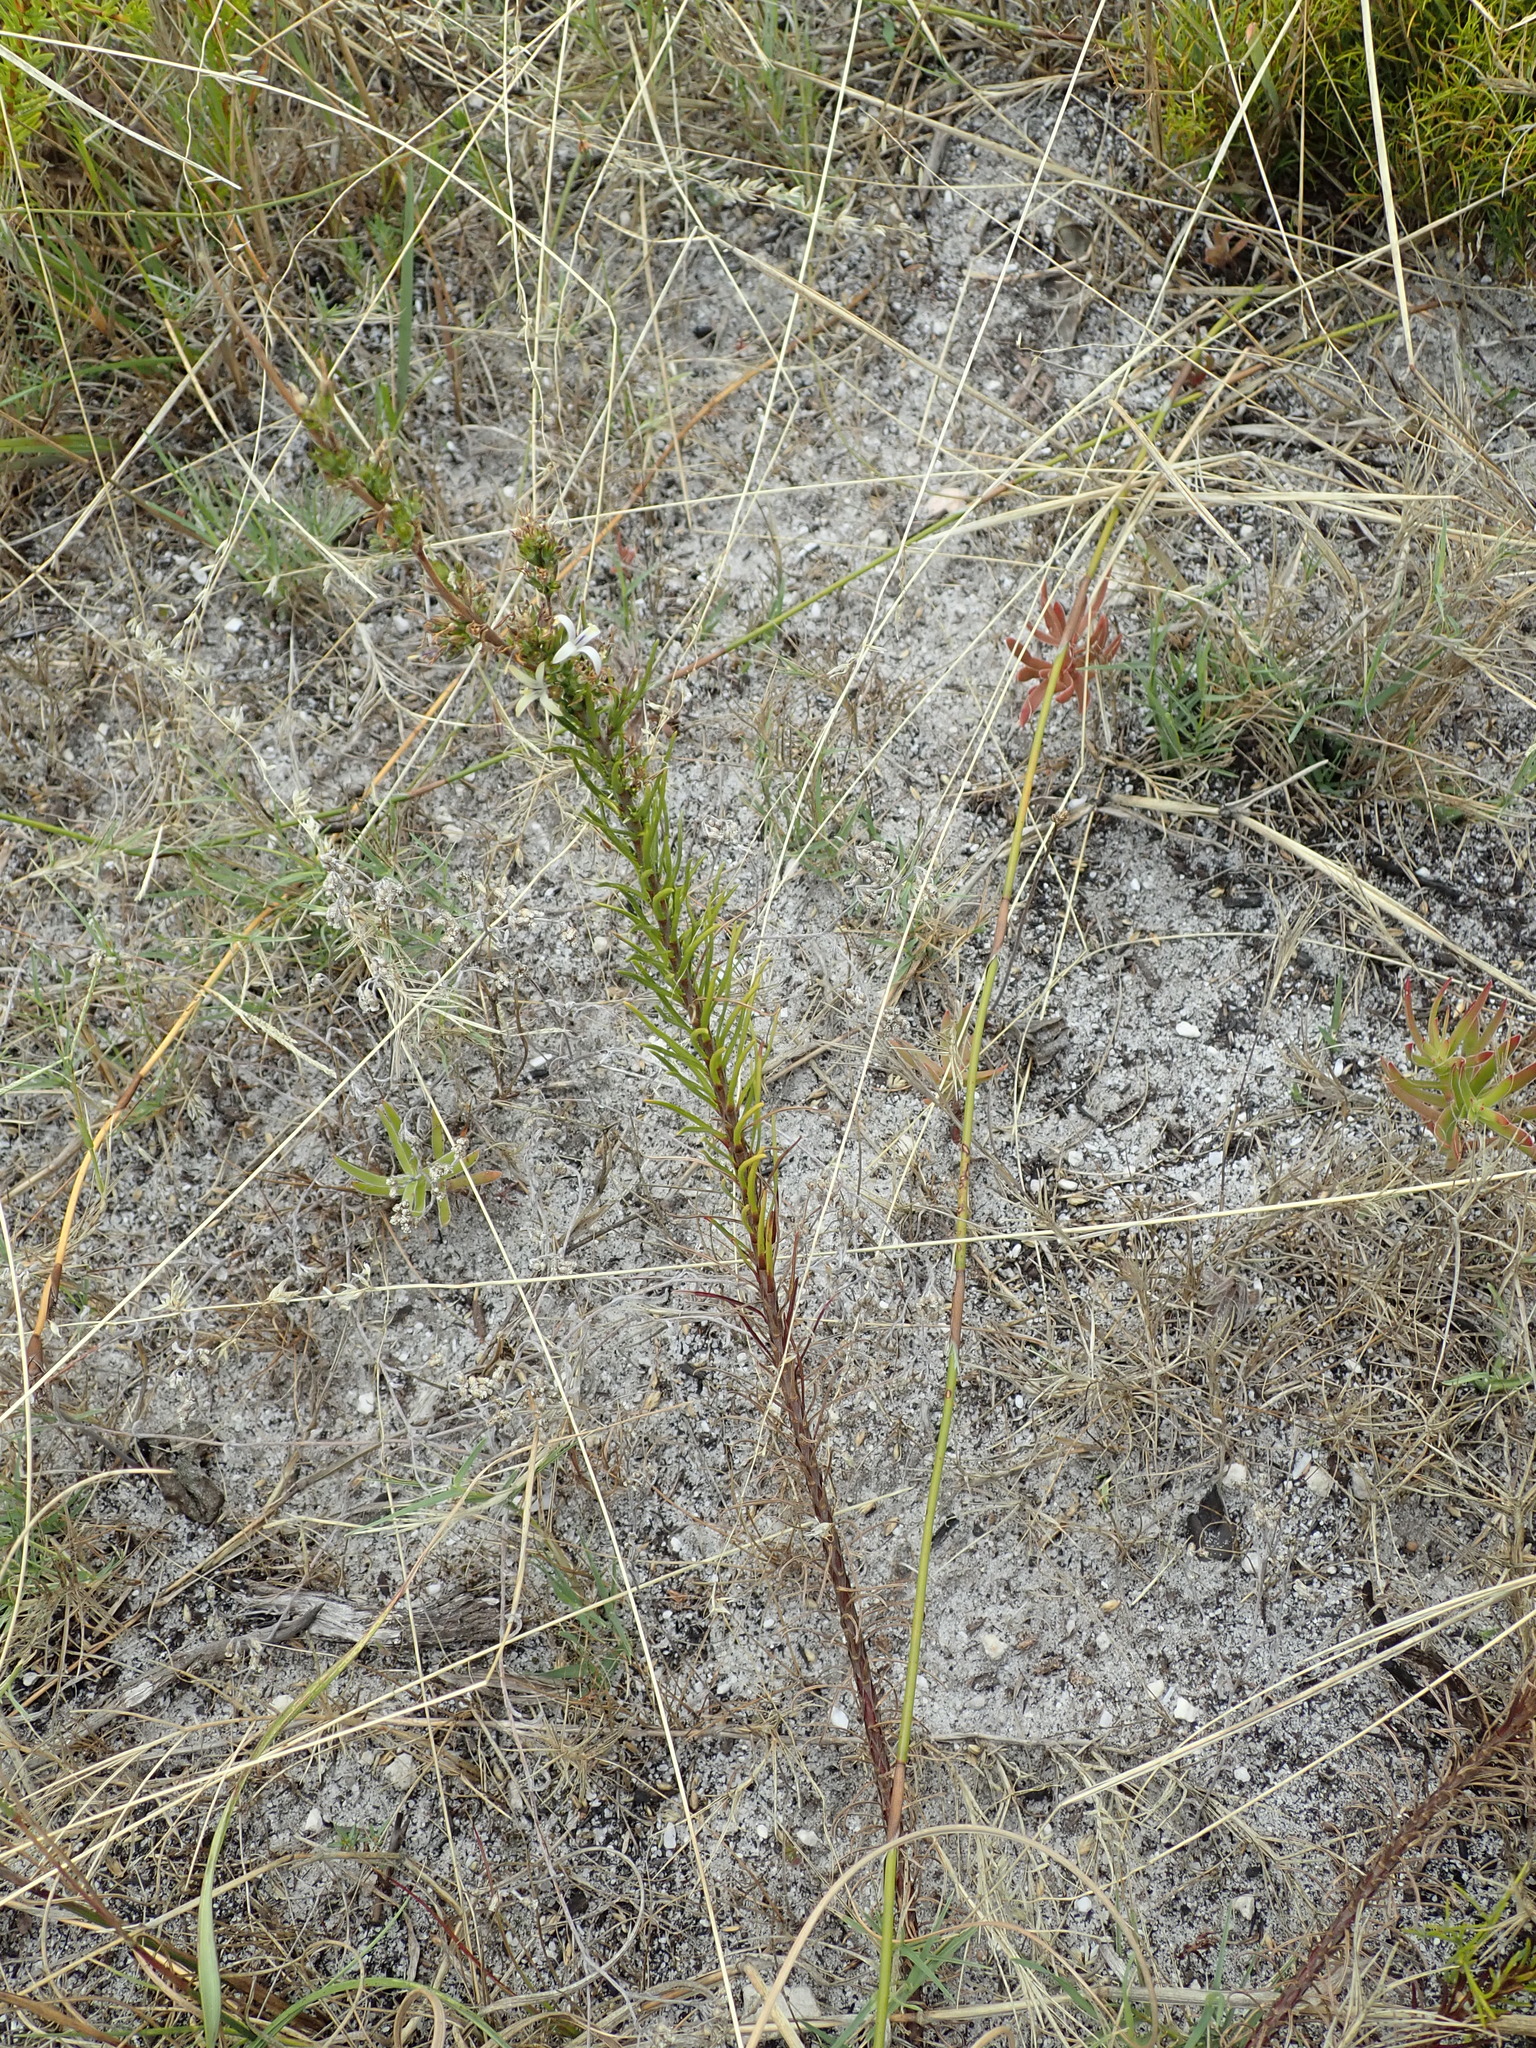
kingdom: Plantae
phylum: Tracheophyta
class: Magnoliopsida
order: Asterales
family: Campanulaceae
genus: Wahlenbergia
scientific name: Wahlenbergia longifolia
